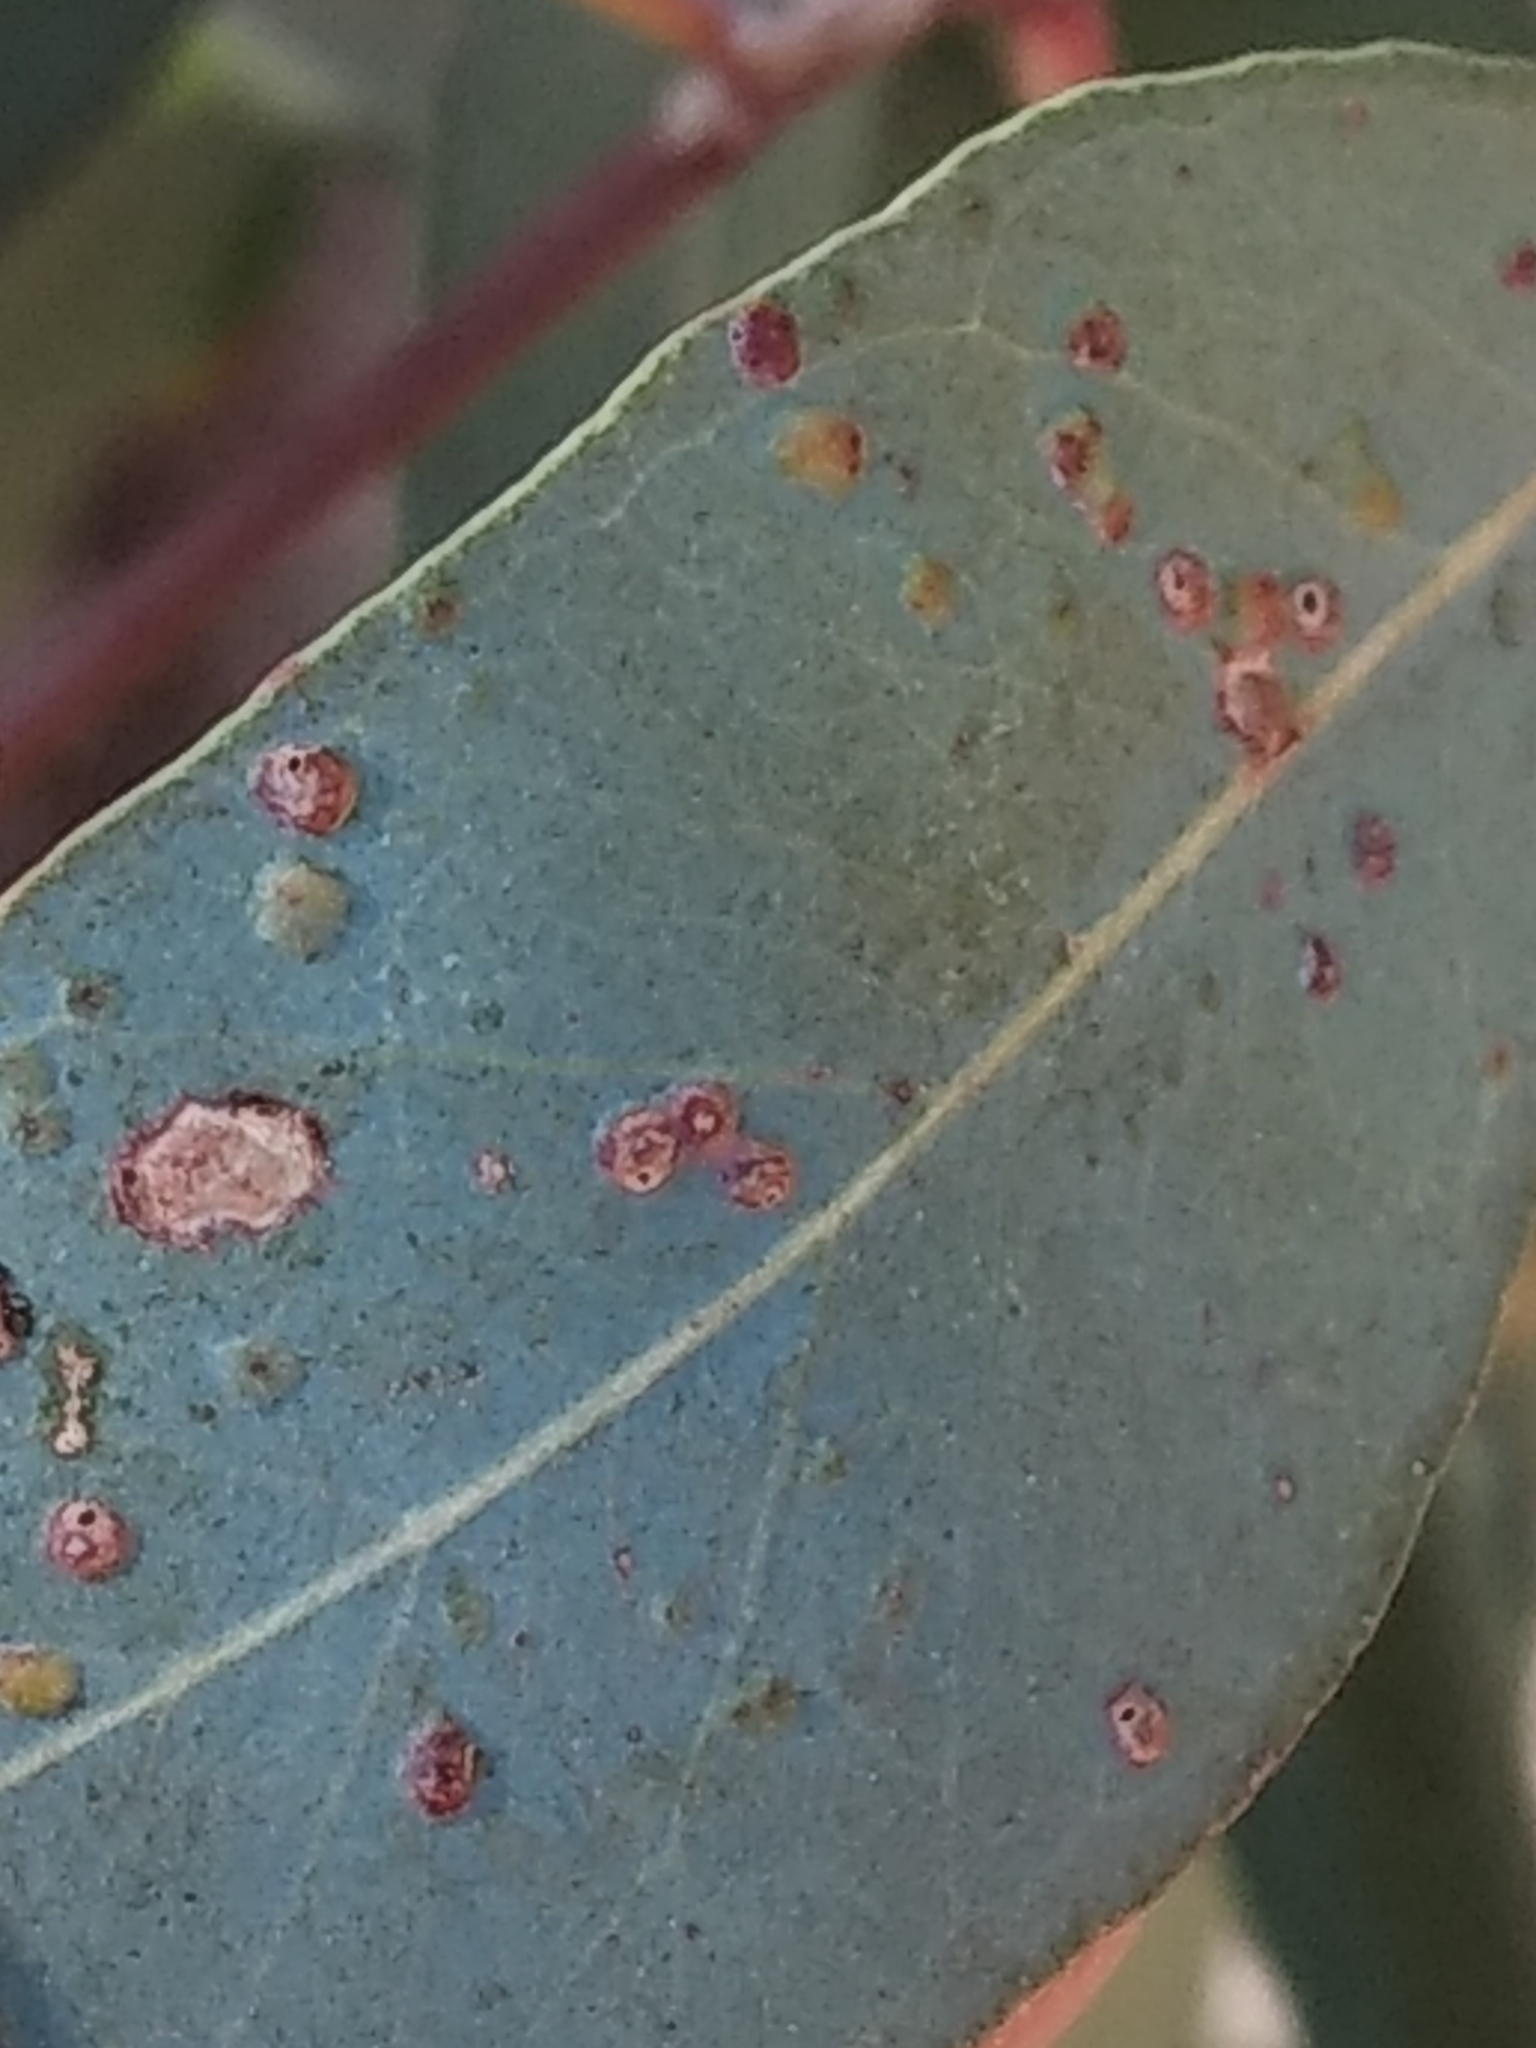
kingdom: Animalia
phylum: Arthropoda
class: Insecta
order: Hymenoptera
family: Eulophidae
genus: Ophelimus
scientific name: Ophelimus maskelli
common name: Gall wasp
